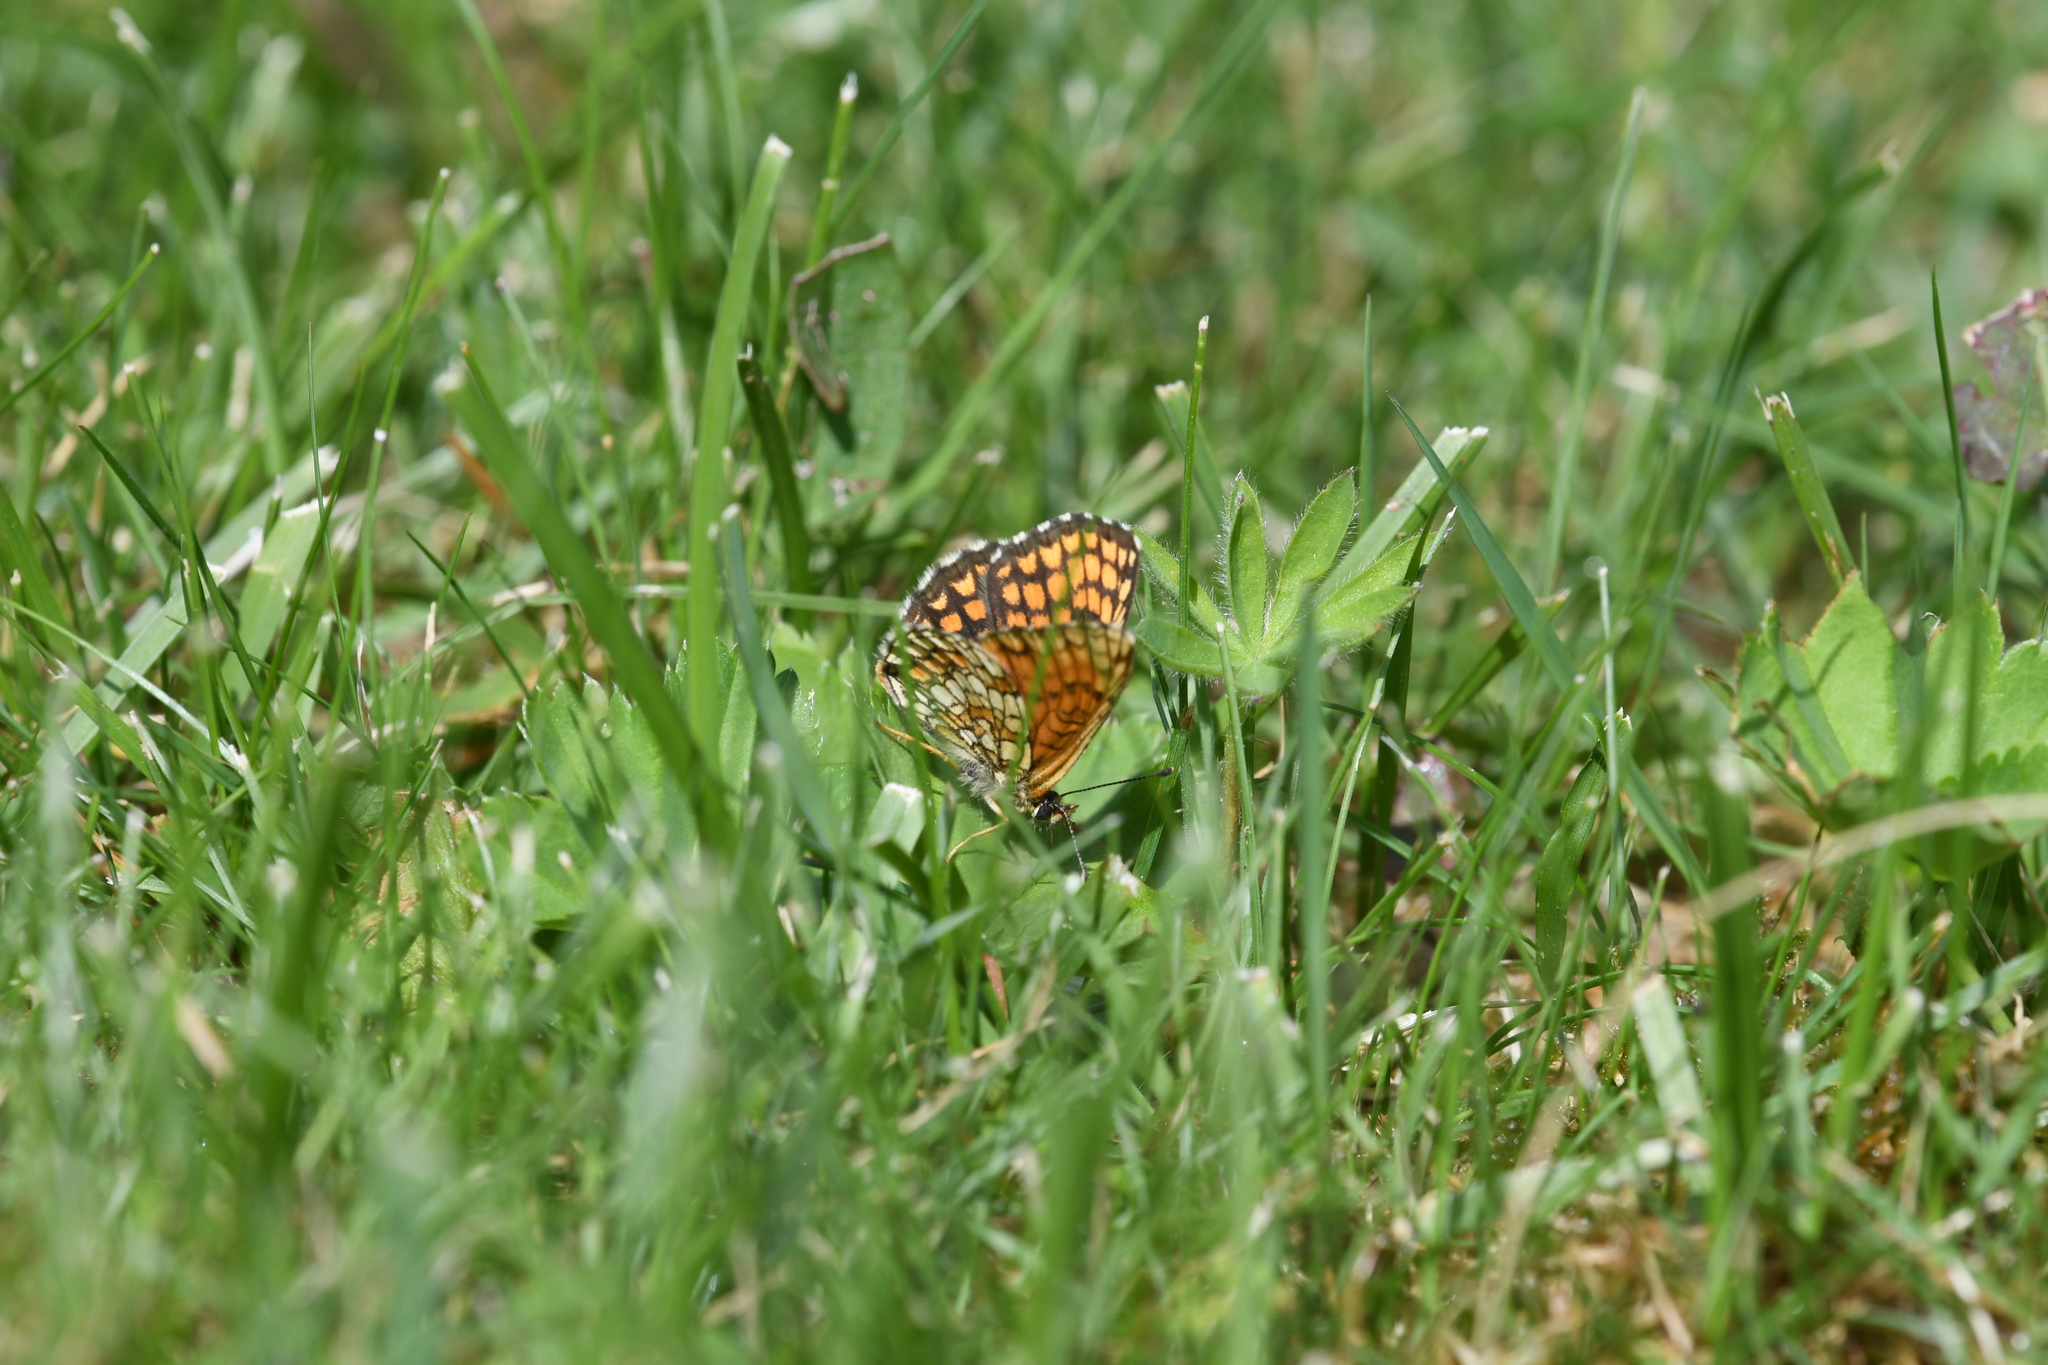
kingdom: Animalia
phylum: Arthropoda
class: Insecta
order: Lepidoptera
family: Nymphalidae
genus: Melitaea
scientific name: Melitaea athalia
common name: Heath fritillary
